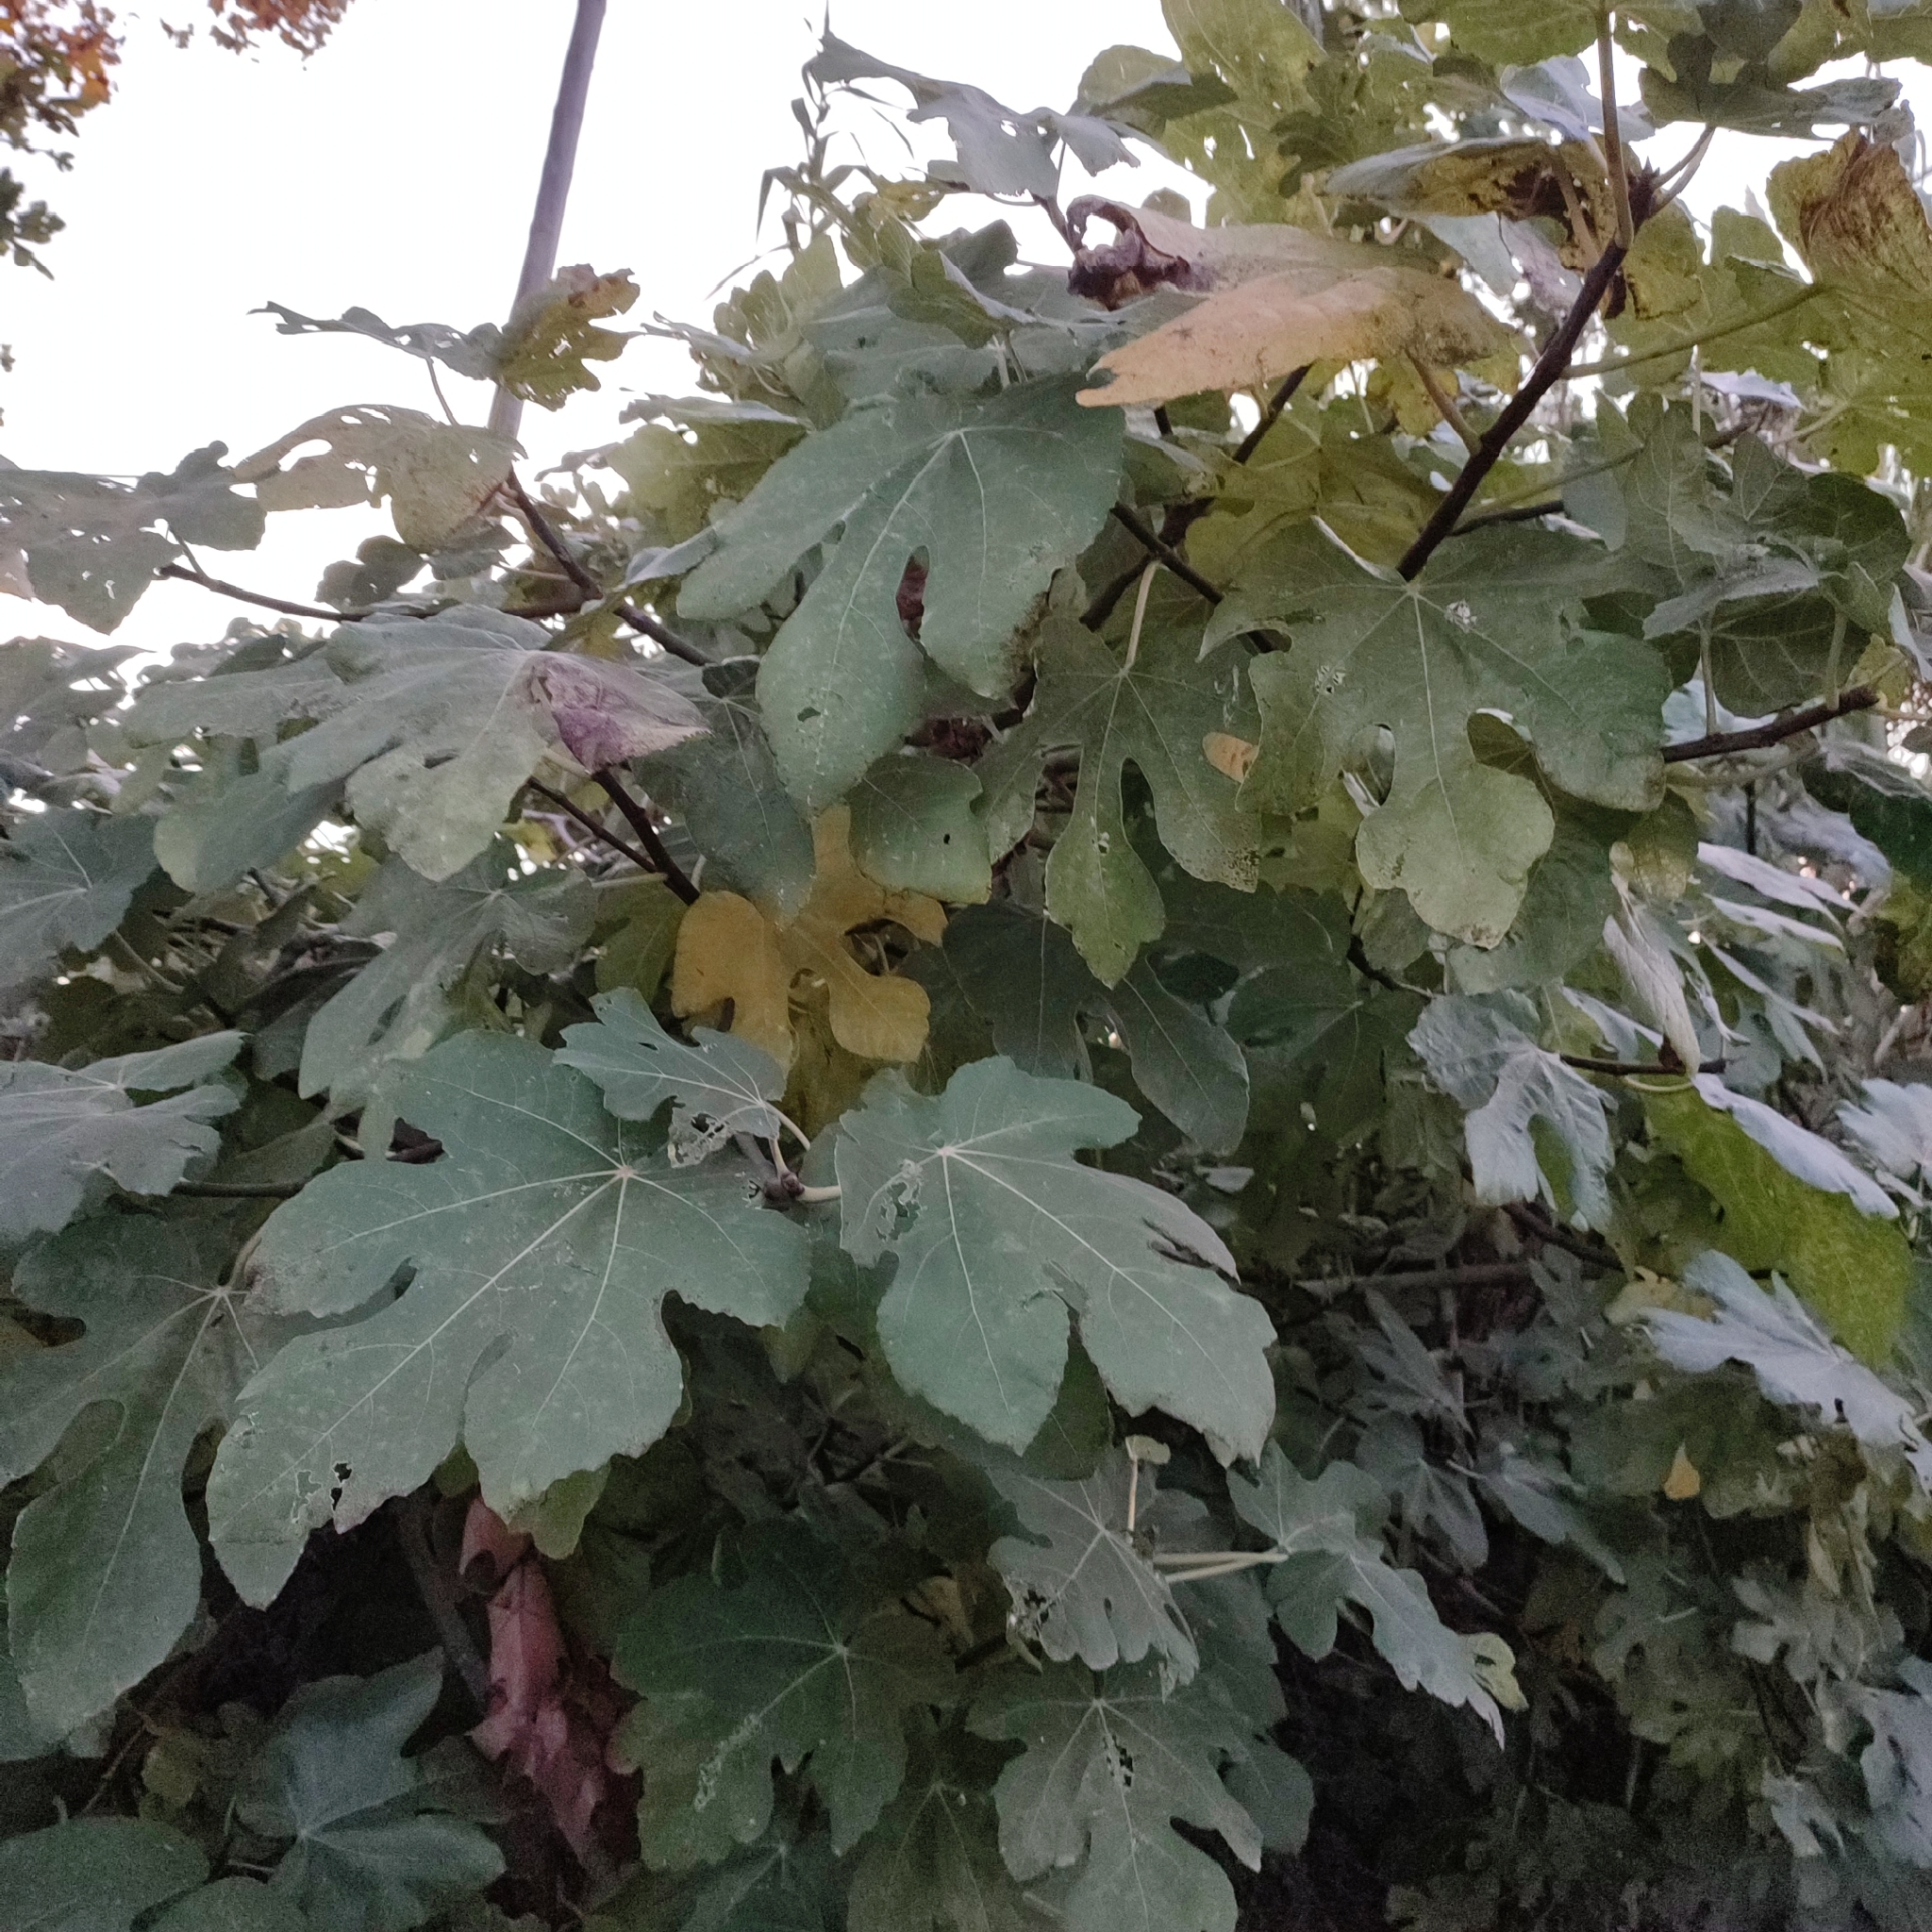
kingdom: Plantae
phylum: Tracheophyta
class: Magnoliopsida
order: Rosales
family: Moraceae
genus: Ficus
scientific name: Ficus carica
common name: Fig
